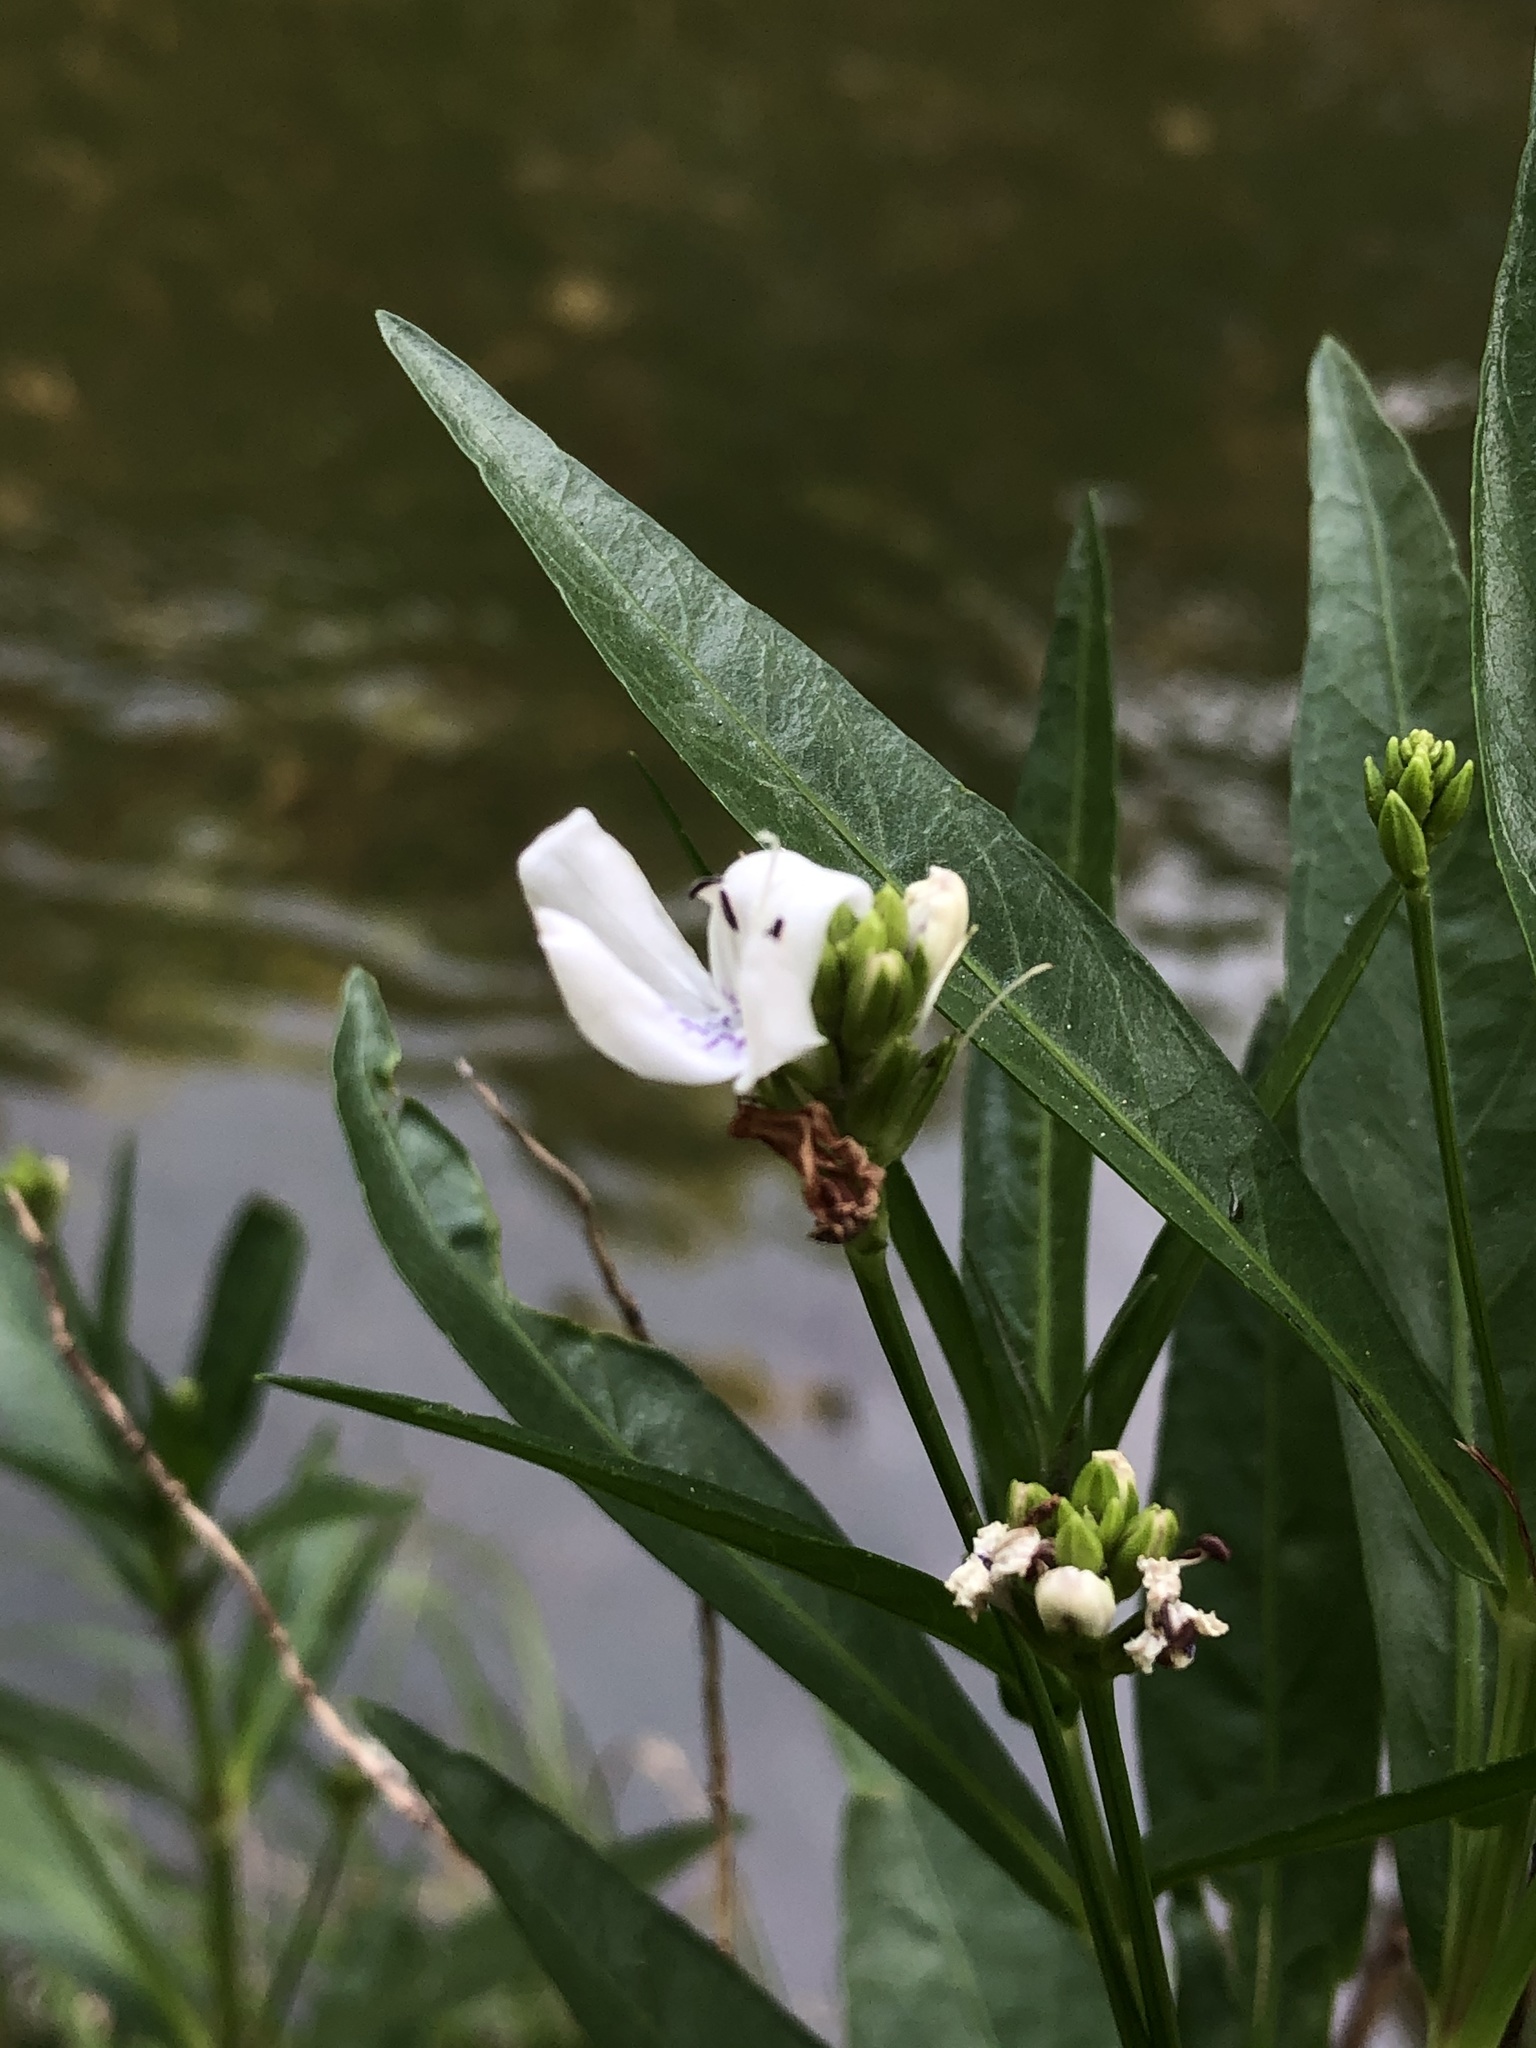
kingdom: Plantae
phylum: Tracheophyta
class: Magnoliopsida
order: Lamiales
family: Acanthaceae
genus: Dianthera
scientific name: Dianthera americana
